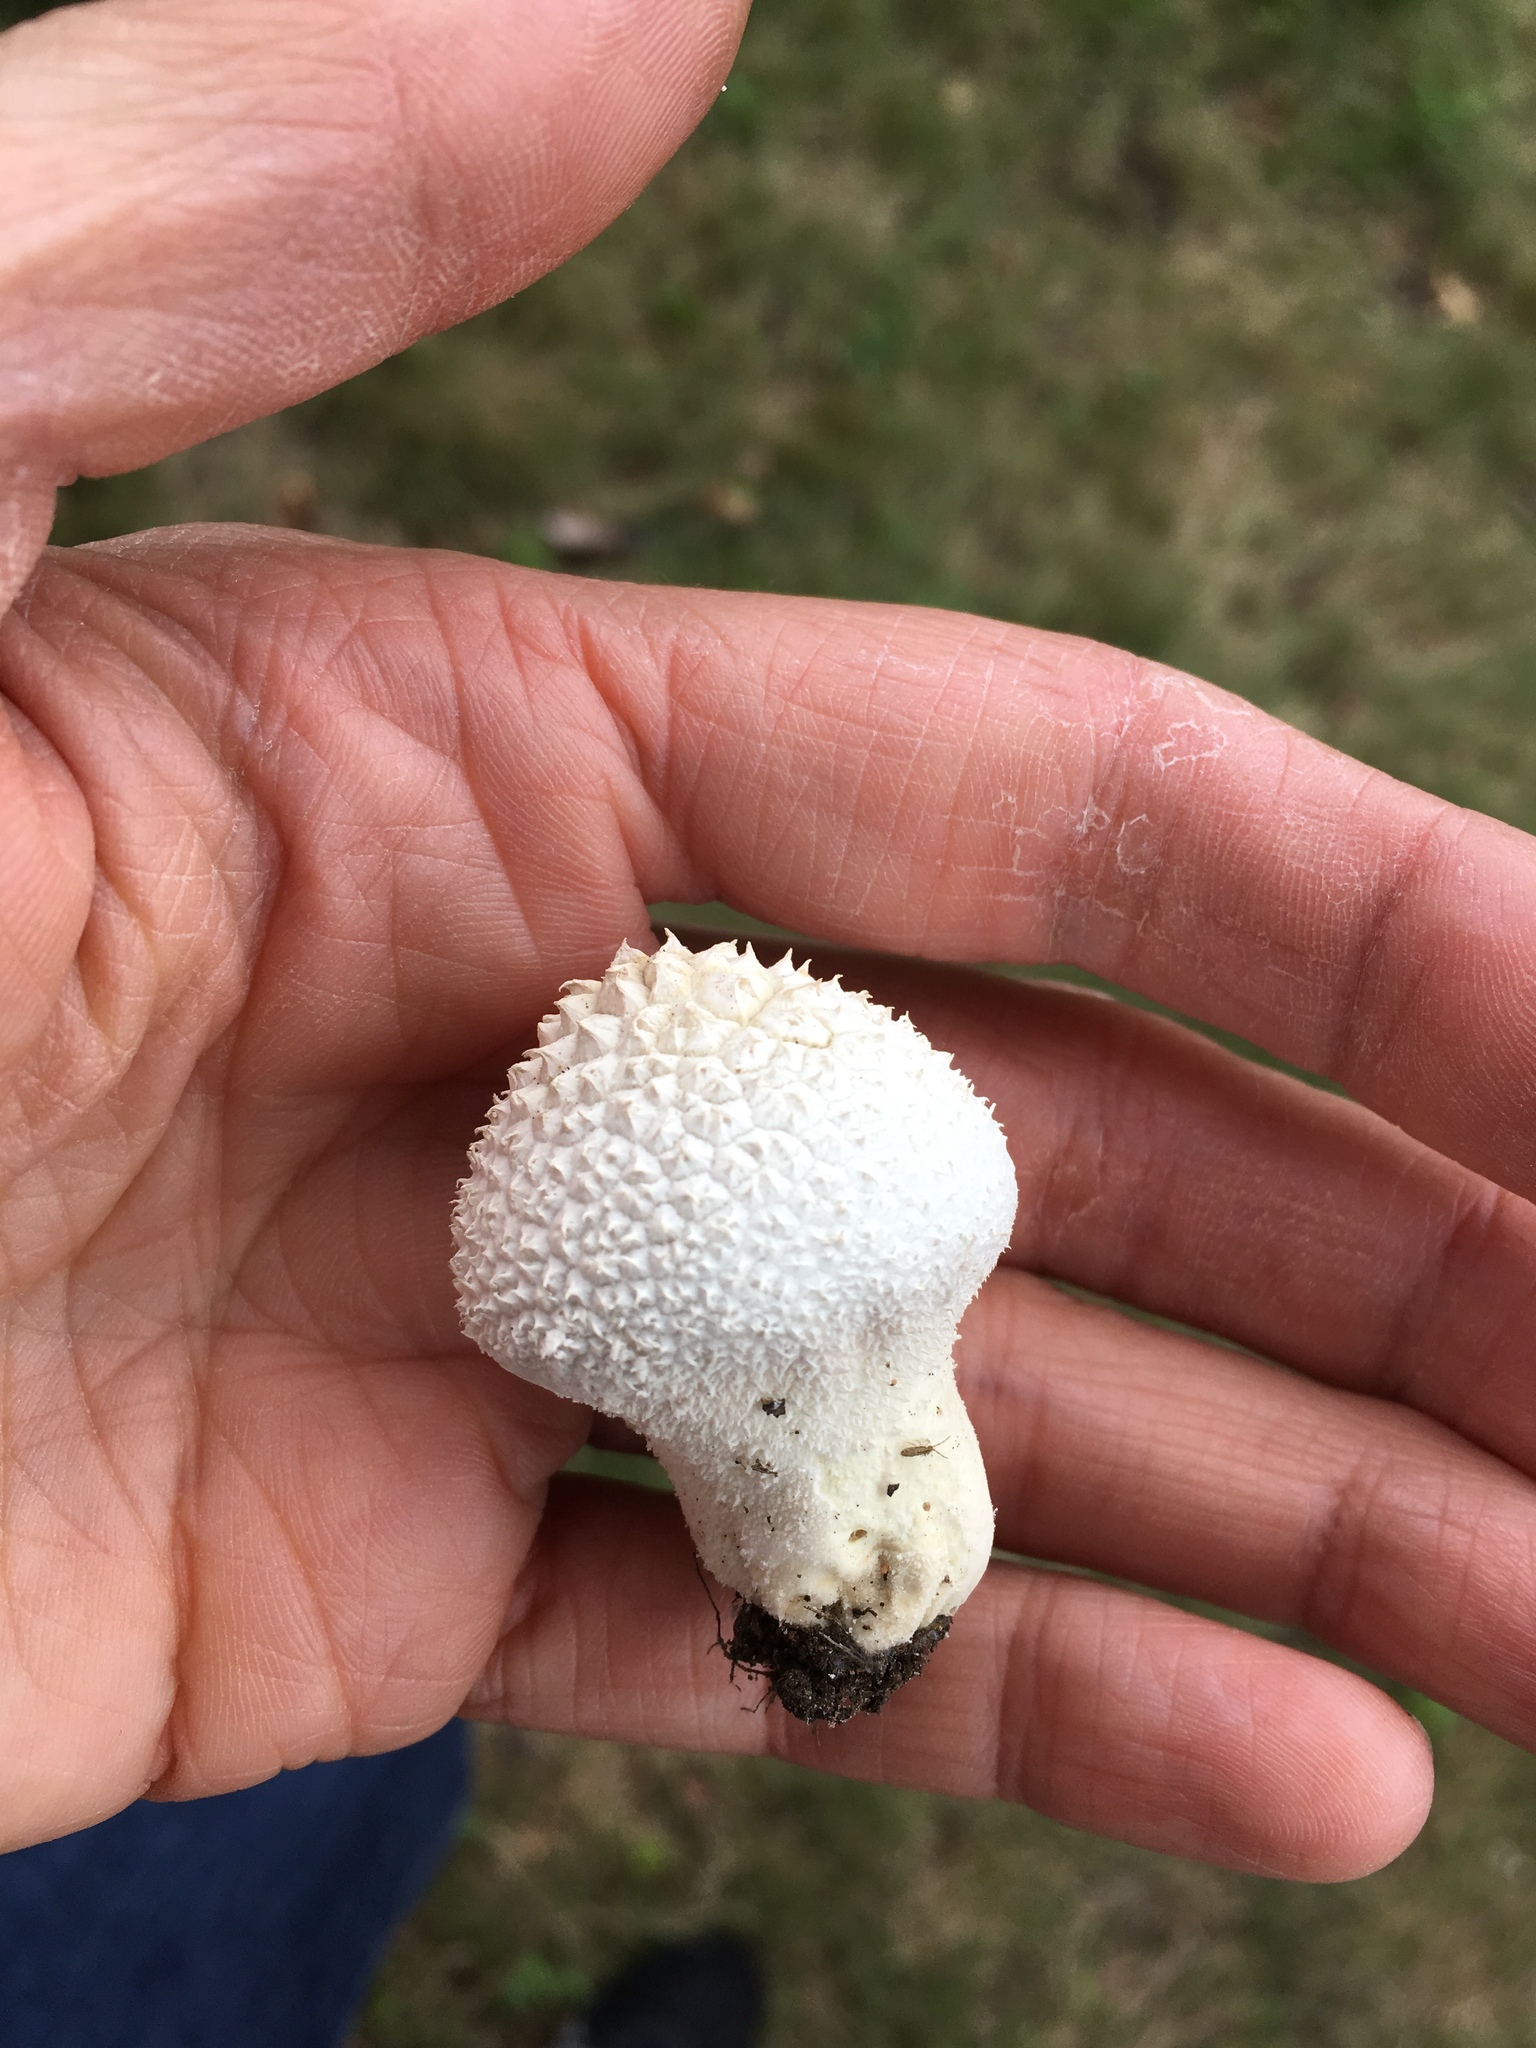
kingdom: Fungi
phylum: Basidiomycota
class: Agaricomycetes
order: Agaricales
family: Lycoperdaceae
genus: Lycoperdon
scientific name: Lycoperdon perlatum
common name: Common puffball
